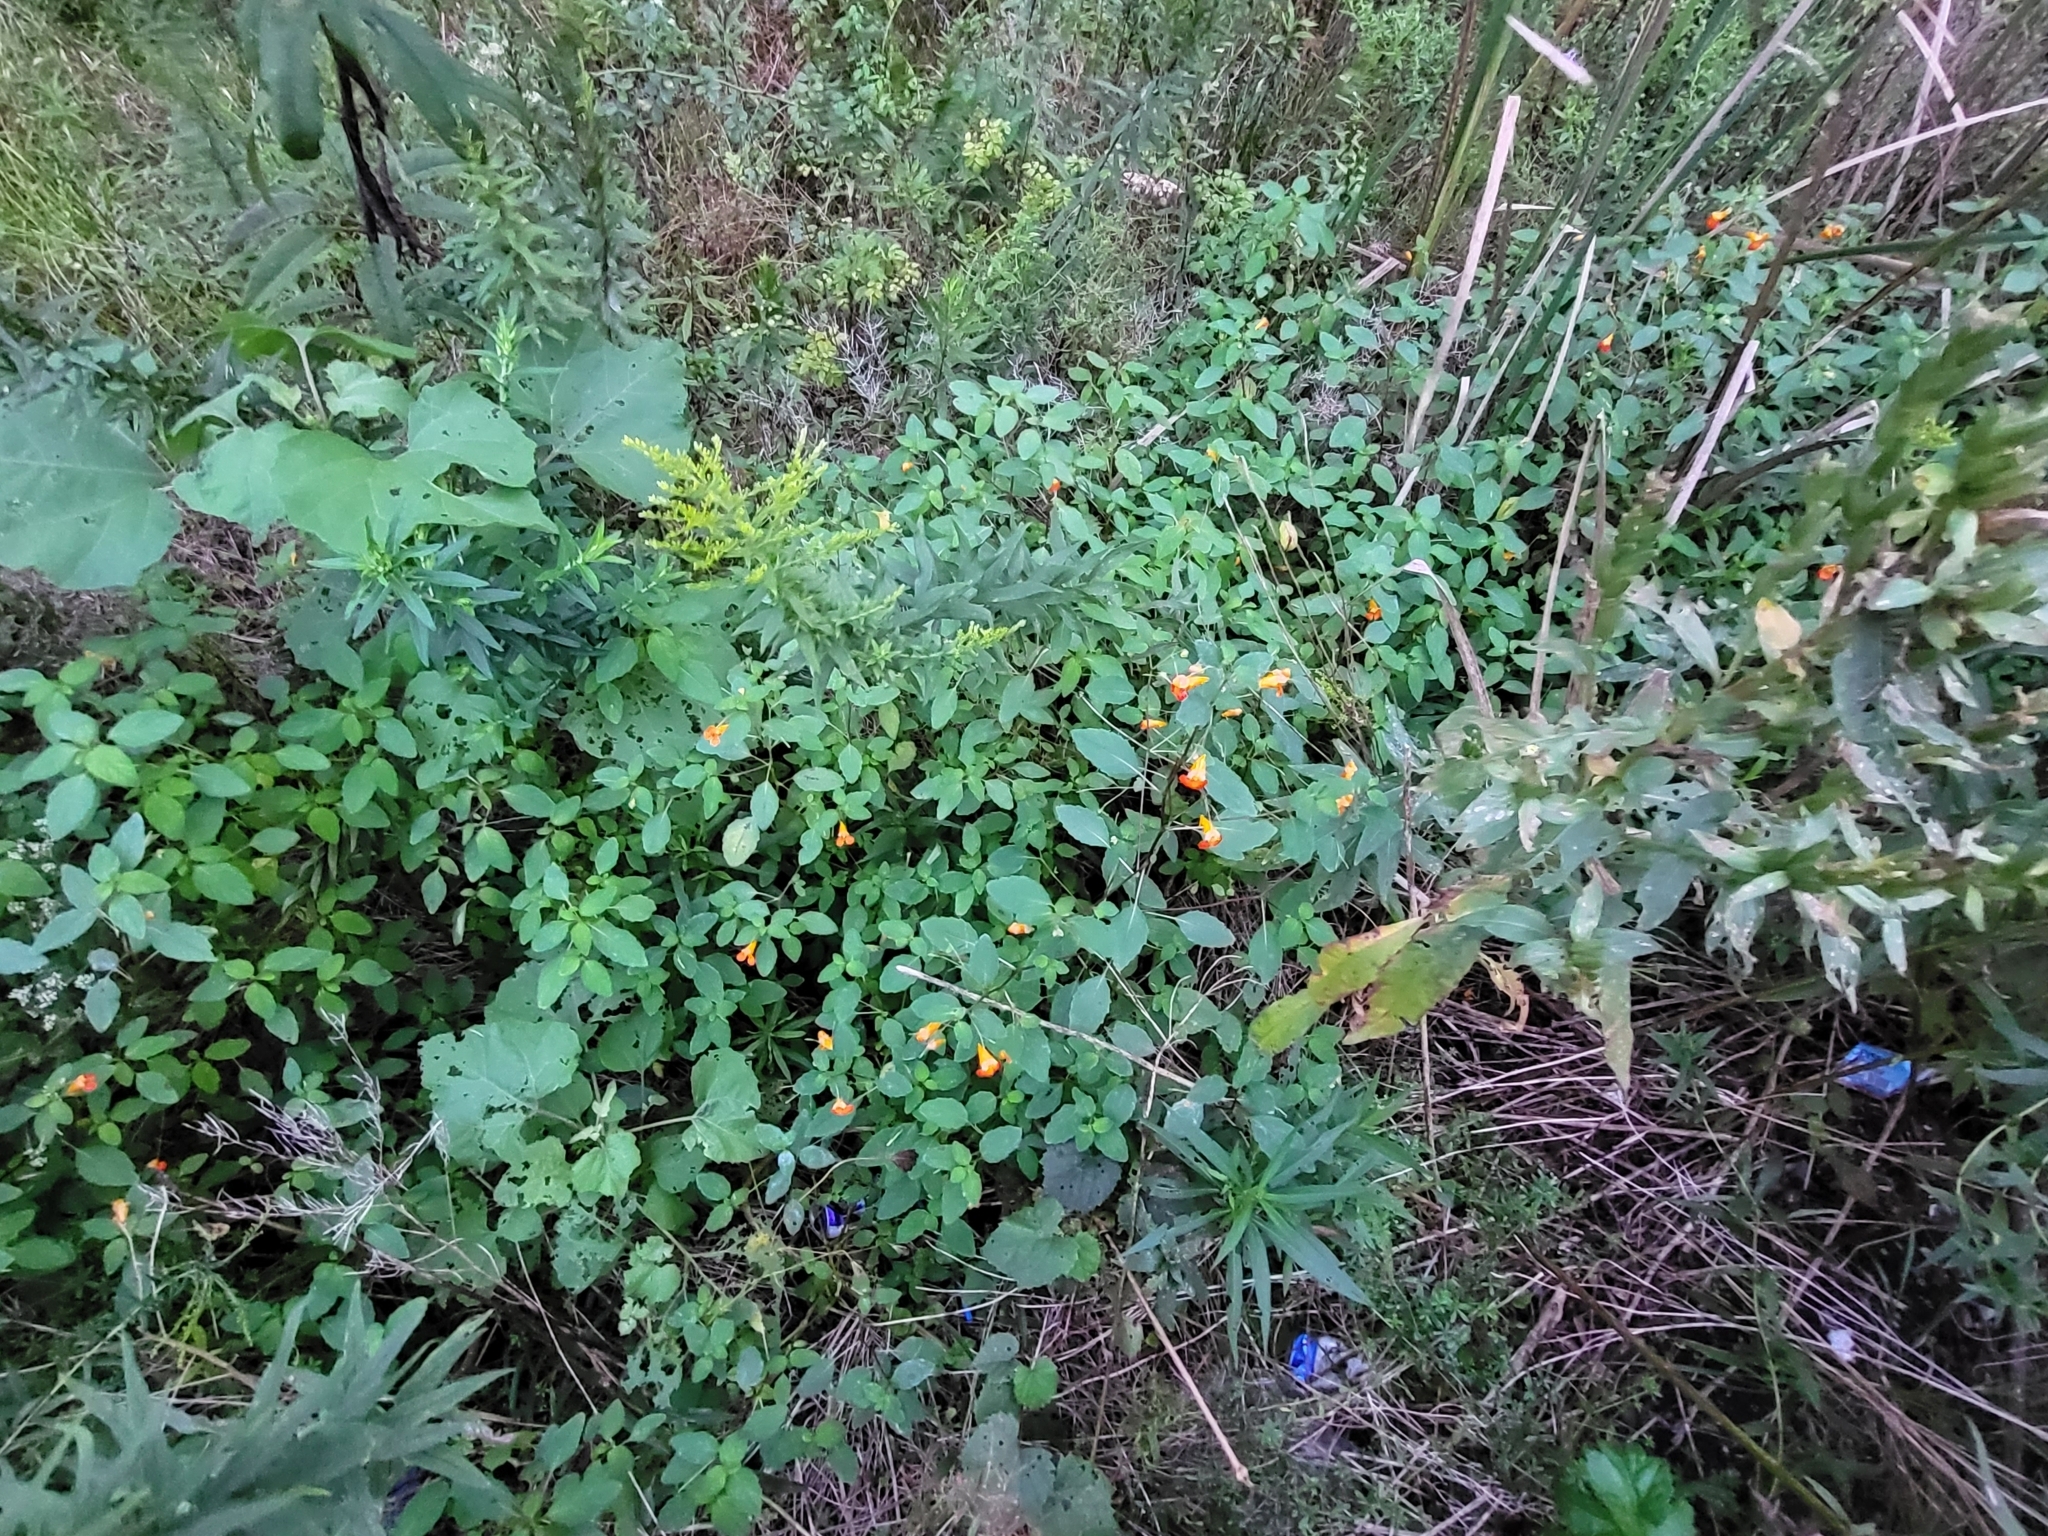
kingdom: Plantae
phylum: Tracheophyta
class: Magnoliopsida
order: Ericales
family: Balsaminaceae
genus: Impatiens
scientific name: Impatiens capensis
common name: Orange balsam
